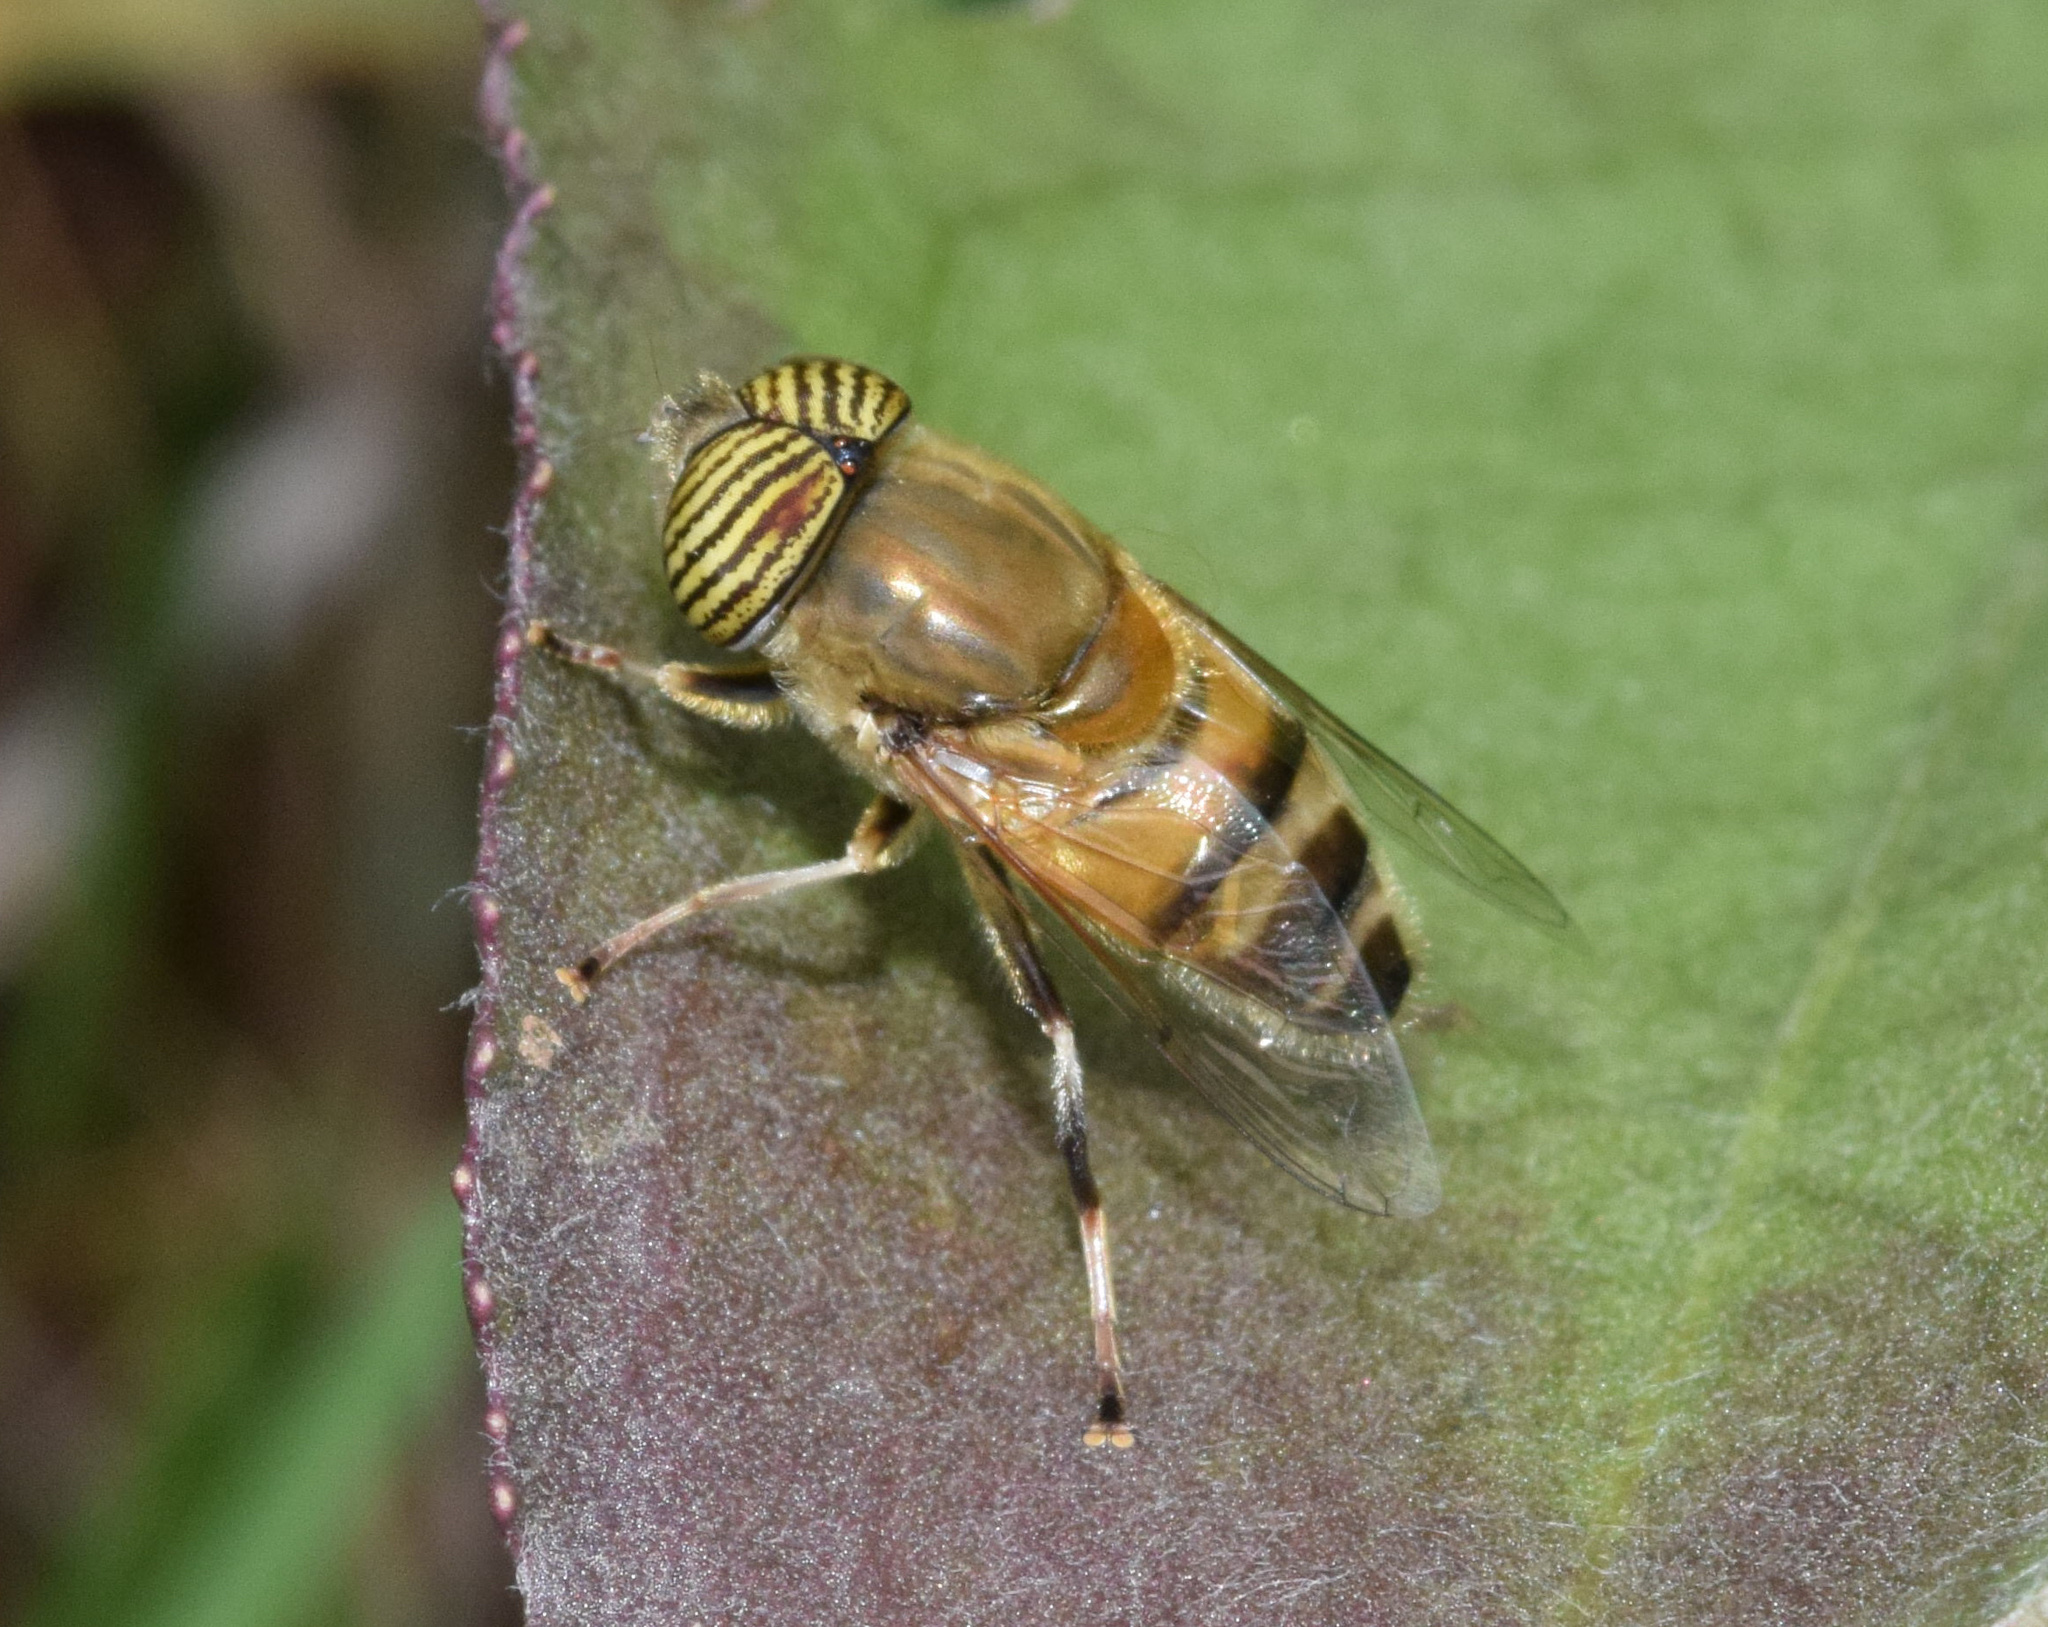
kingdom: Animalia
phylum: Arthropoda
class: Insecta
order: Diptera
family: Syrphidae
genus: Eristalinus
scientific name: Eristalinus taeniops
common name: Syrphid fly
